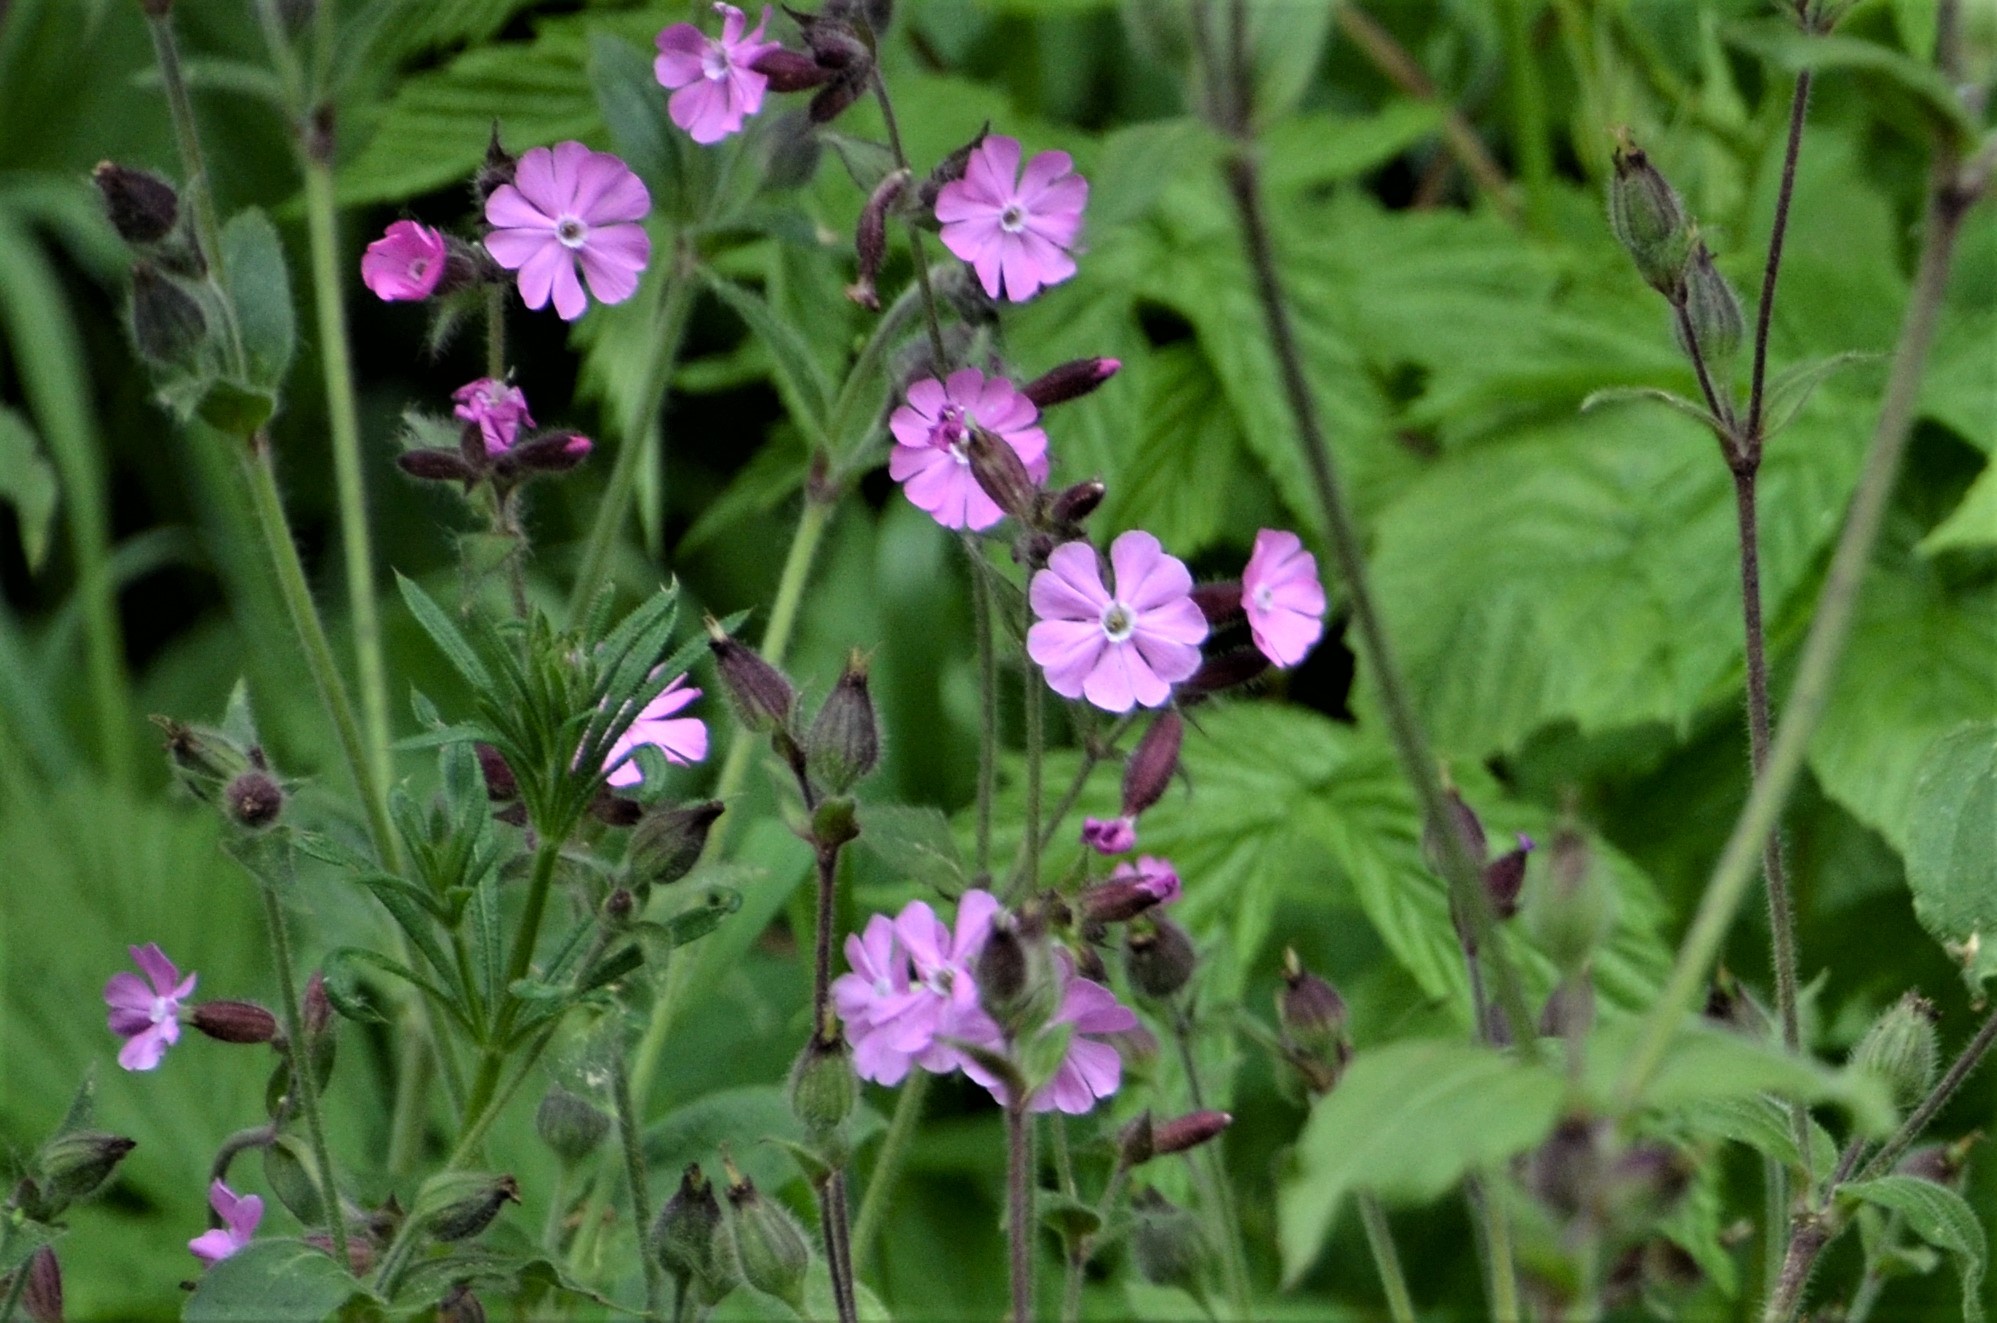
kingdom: Plantae
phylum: Tracheophyta
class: Magnoliopsida
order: Caryophyllales
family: Caryophyllaceae
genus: Silene
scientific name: Silene dioica
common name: Red campion
